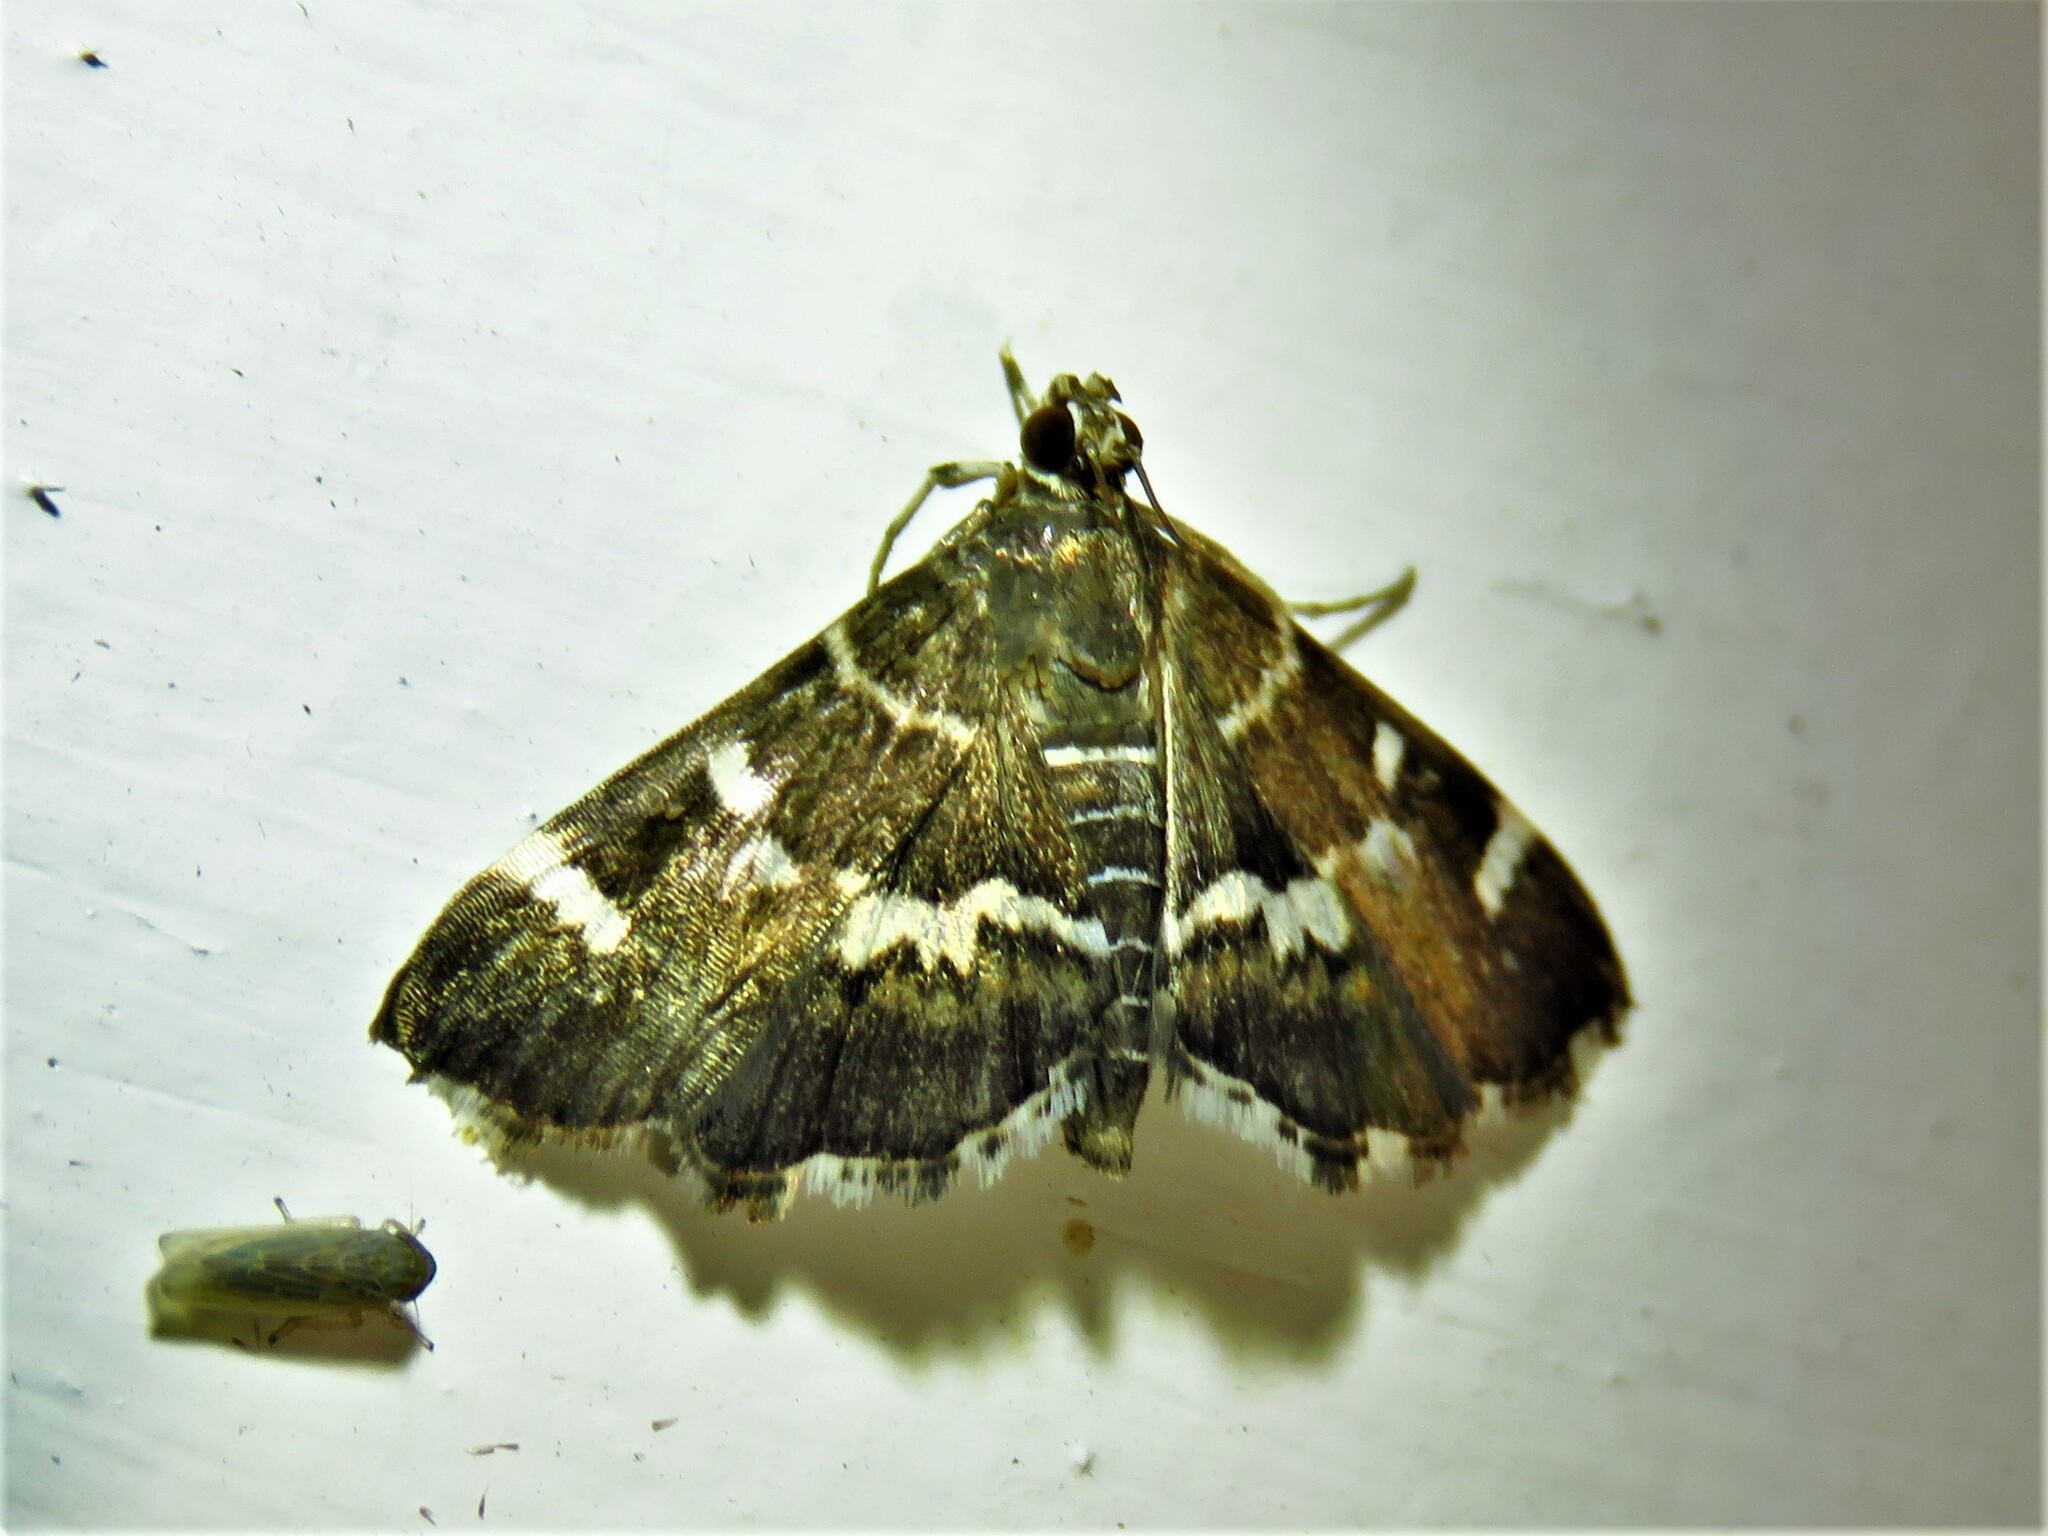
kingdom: Animalia
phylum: Arthropoda
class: Insecta
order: Lepidoptera
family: Crambidae
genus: Hymenia
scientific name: Hymenia perspectalis
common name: Spotted beet webworm
